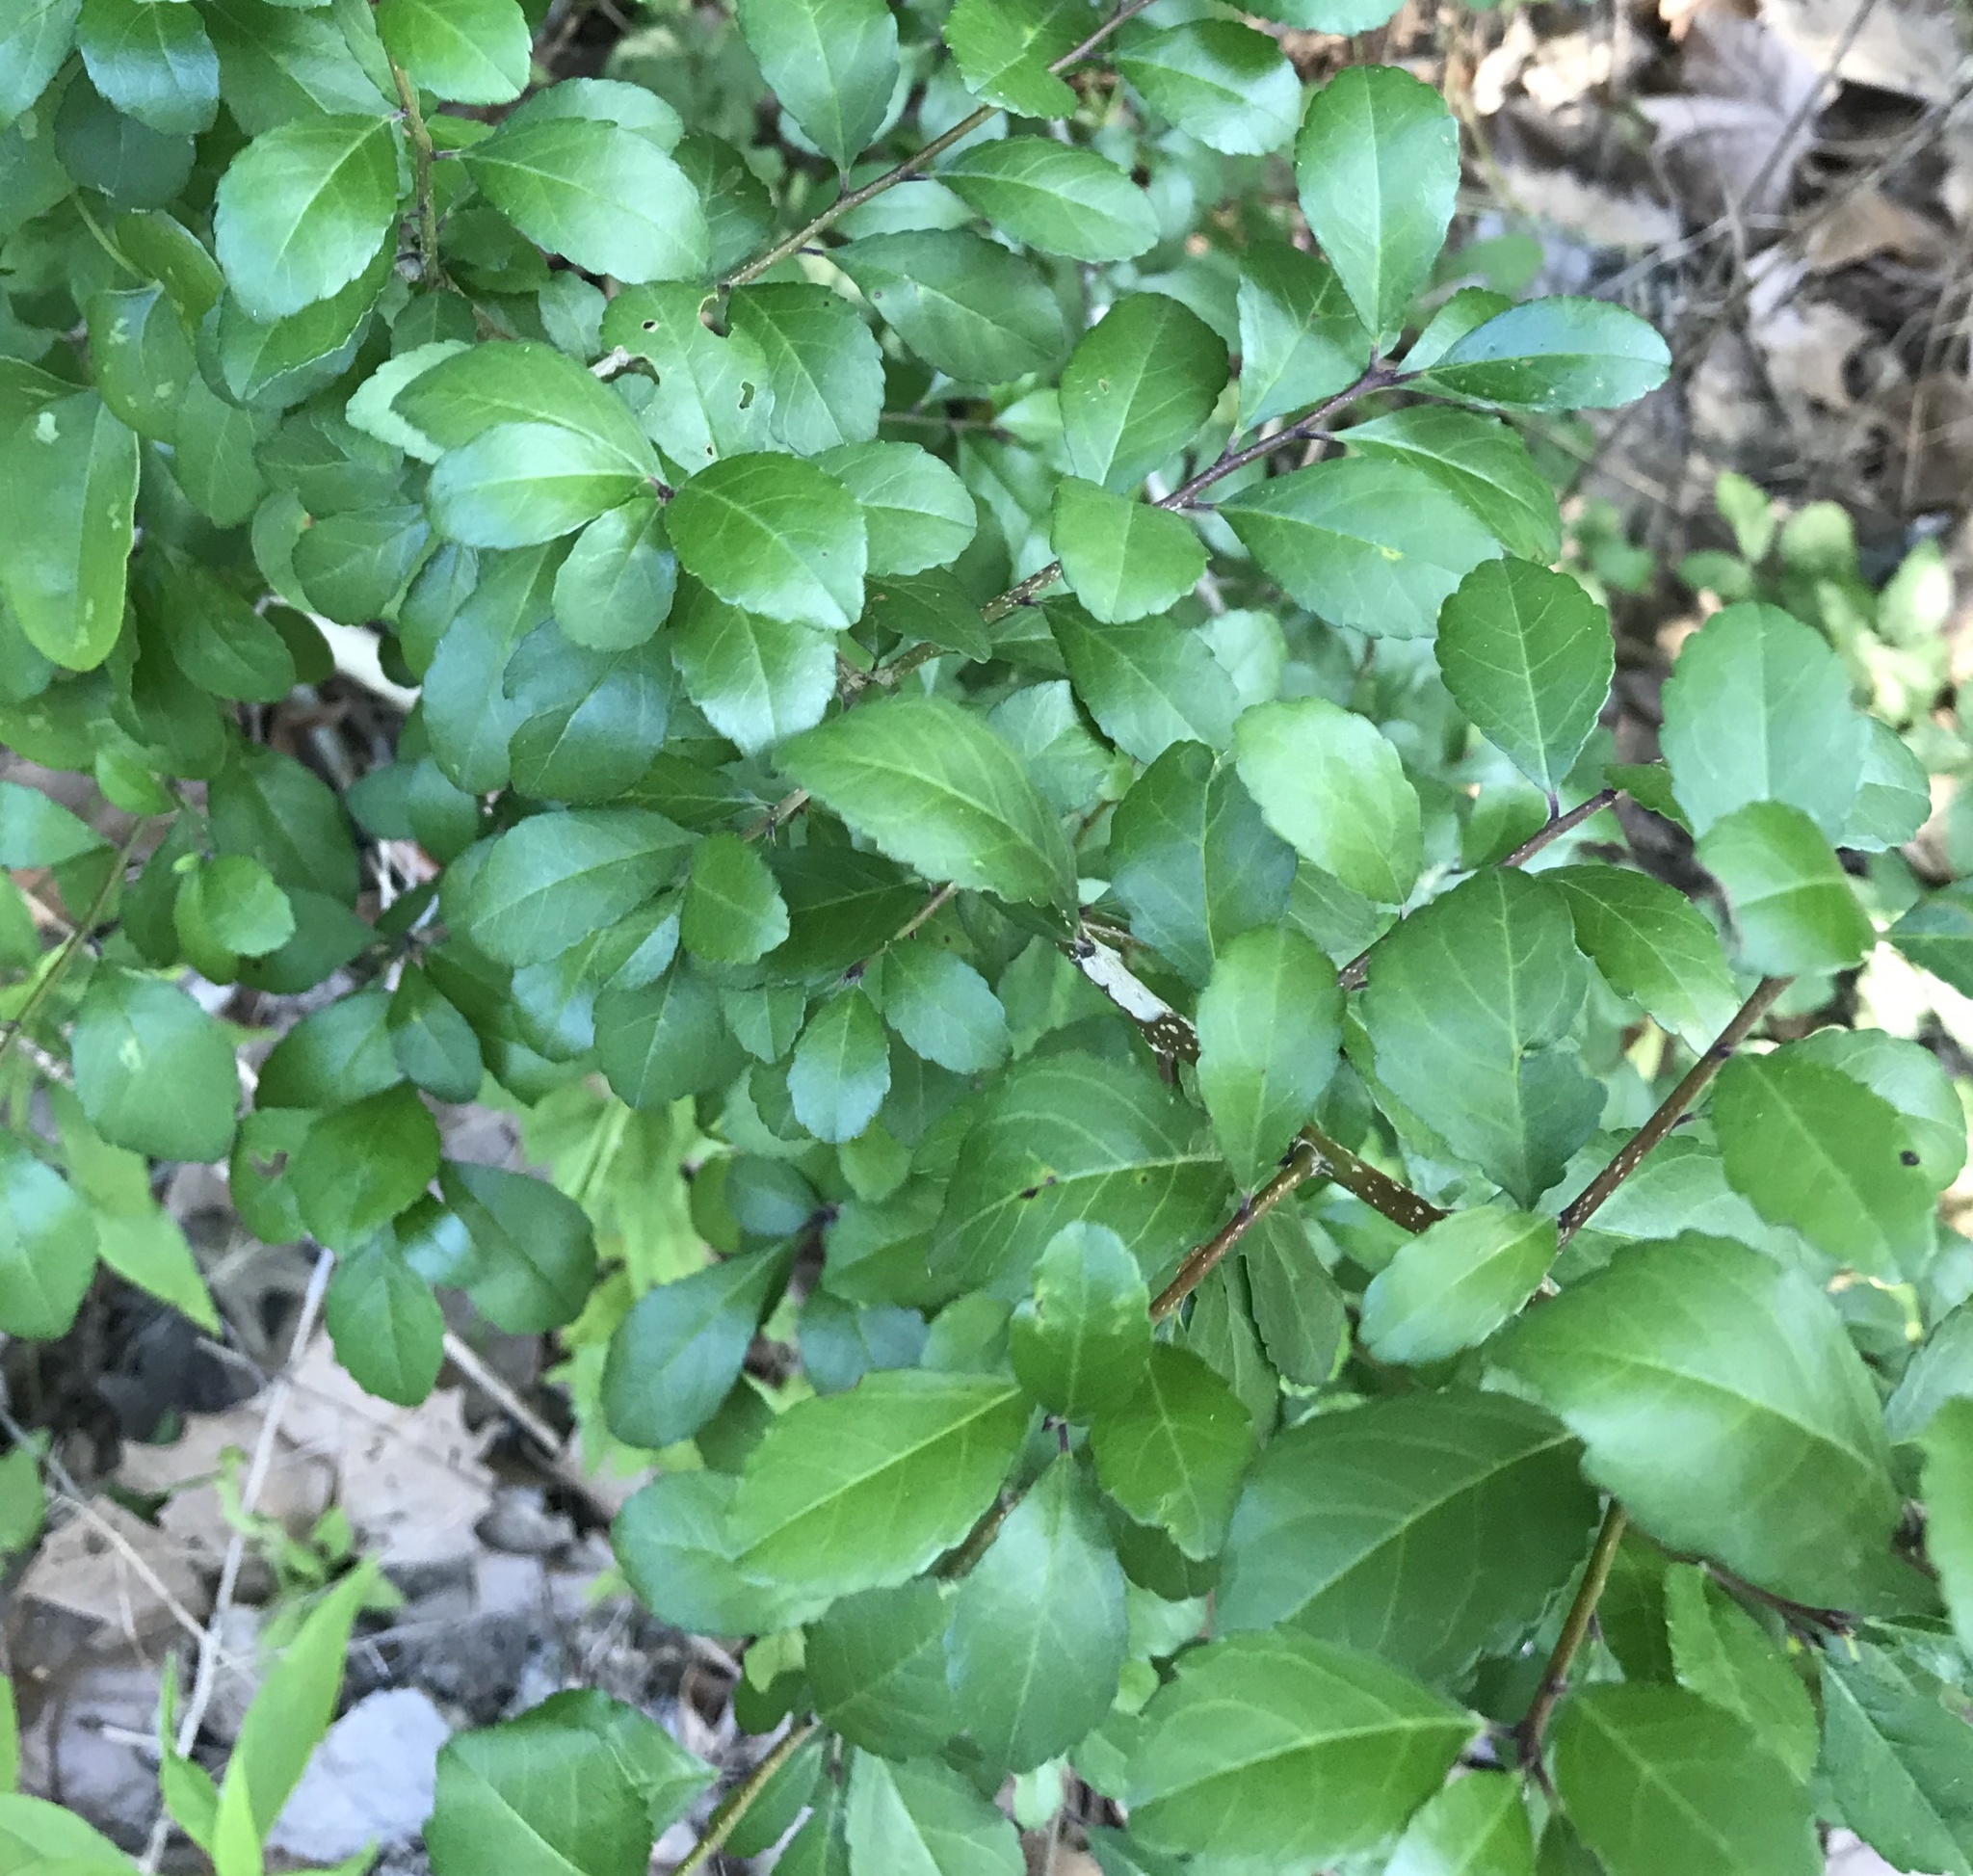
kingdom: Plantae
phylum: Tracheophyta
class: Magnoliopsida
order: Aquifoliales
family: Aquifoliaceae
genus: Ilex
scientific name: Ilex decidua
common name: Possum-haw
